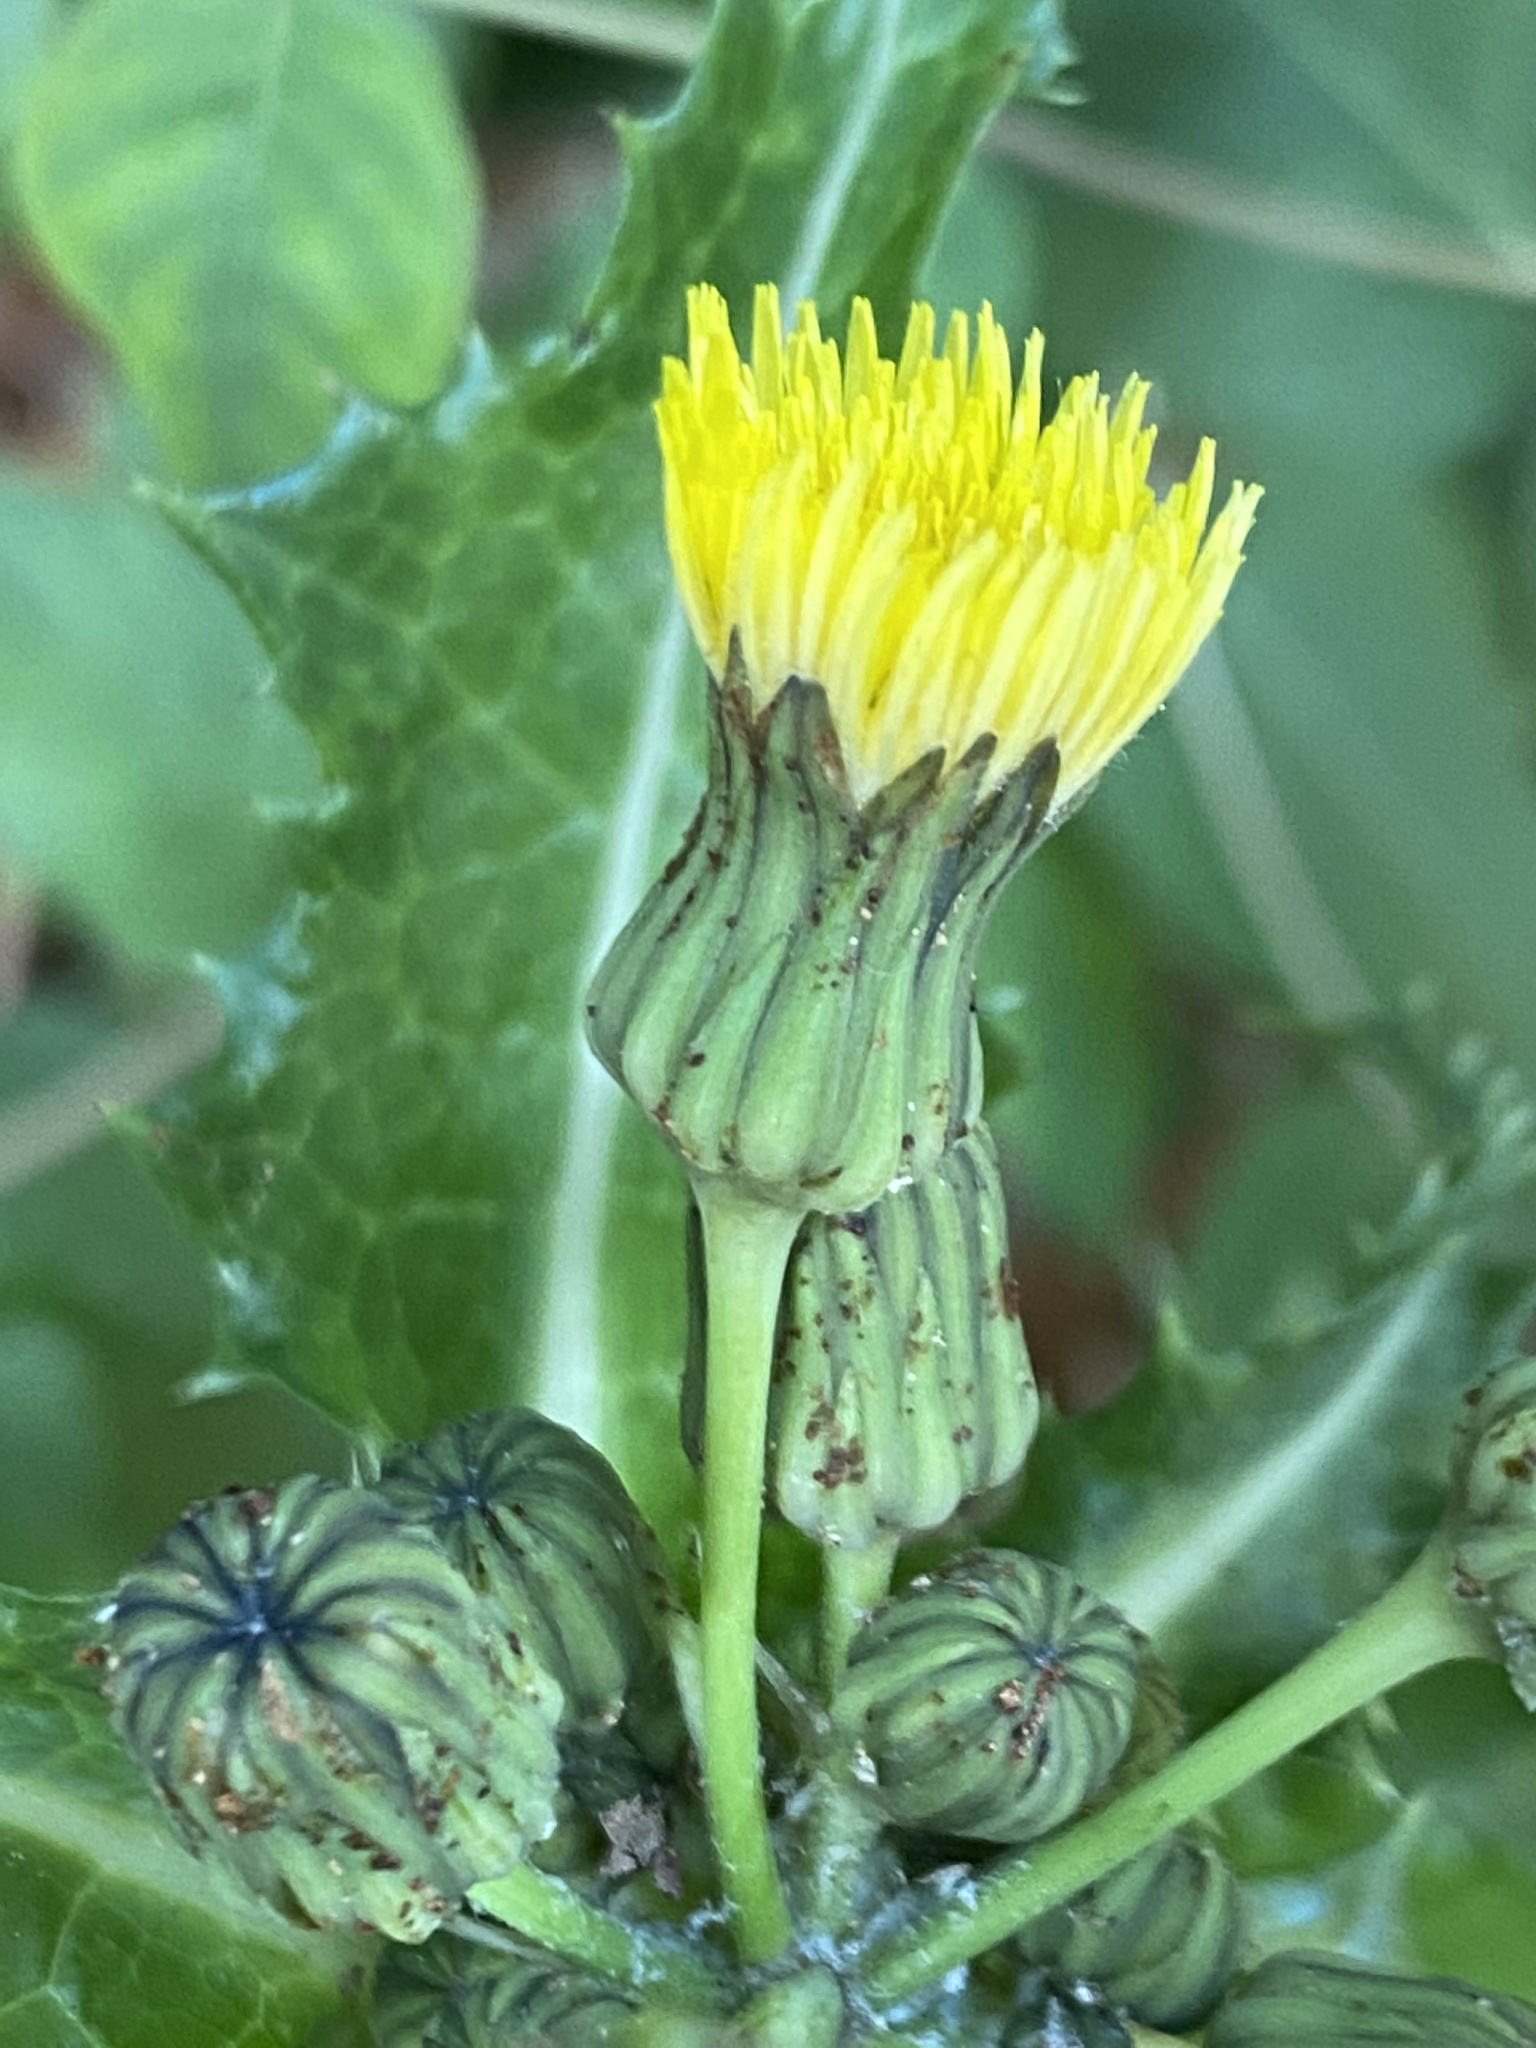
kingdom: Plantae
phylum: Tracheophyta
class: Magnoliopsida
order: Asterales
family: Asteraceae
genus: Sonchus
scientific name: Sonchus asper
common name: Prickly sow-thistle
